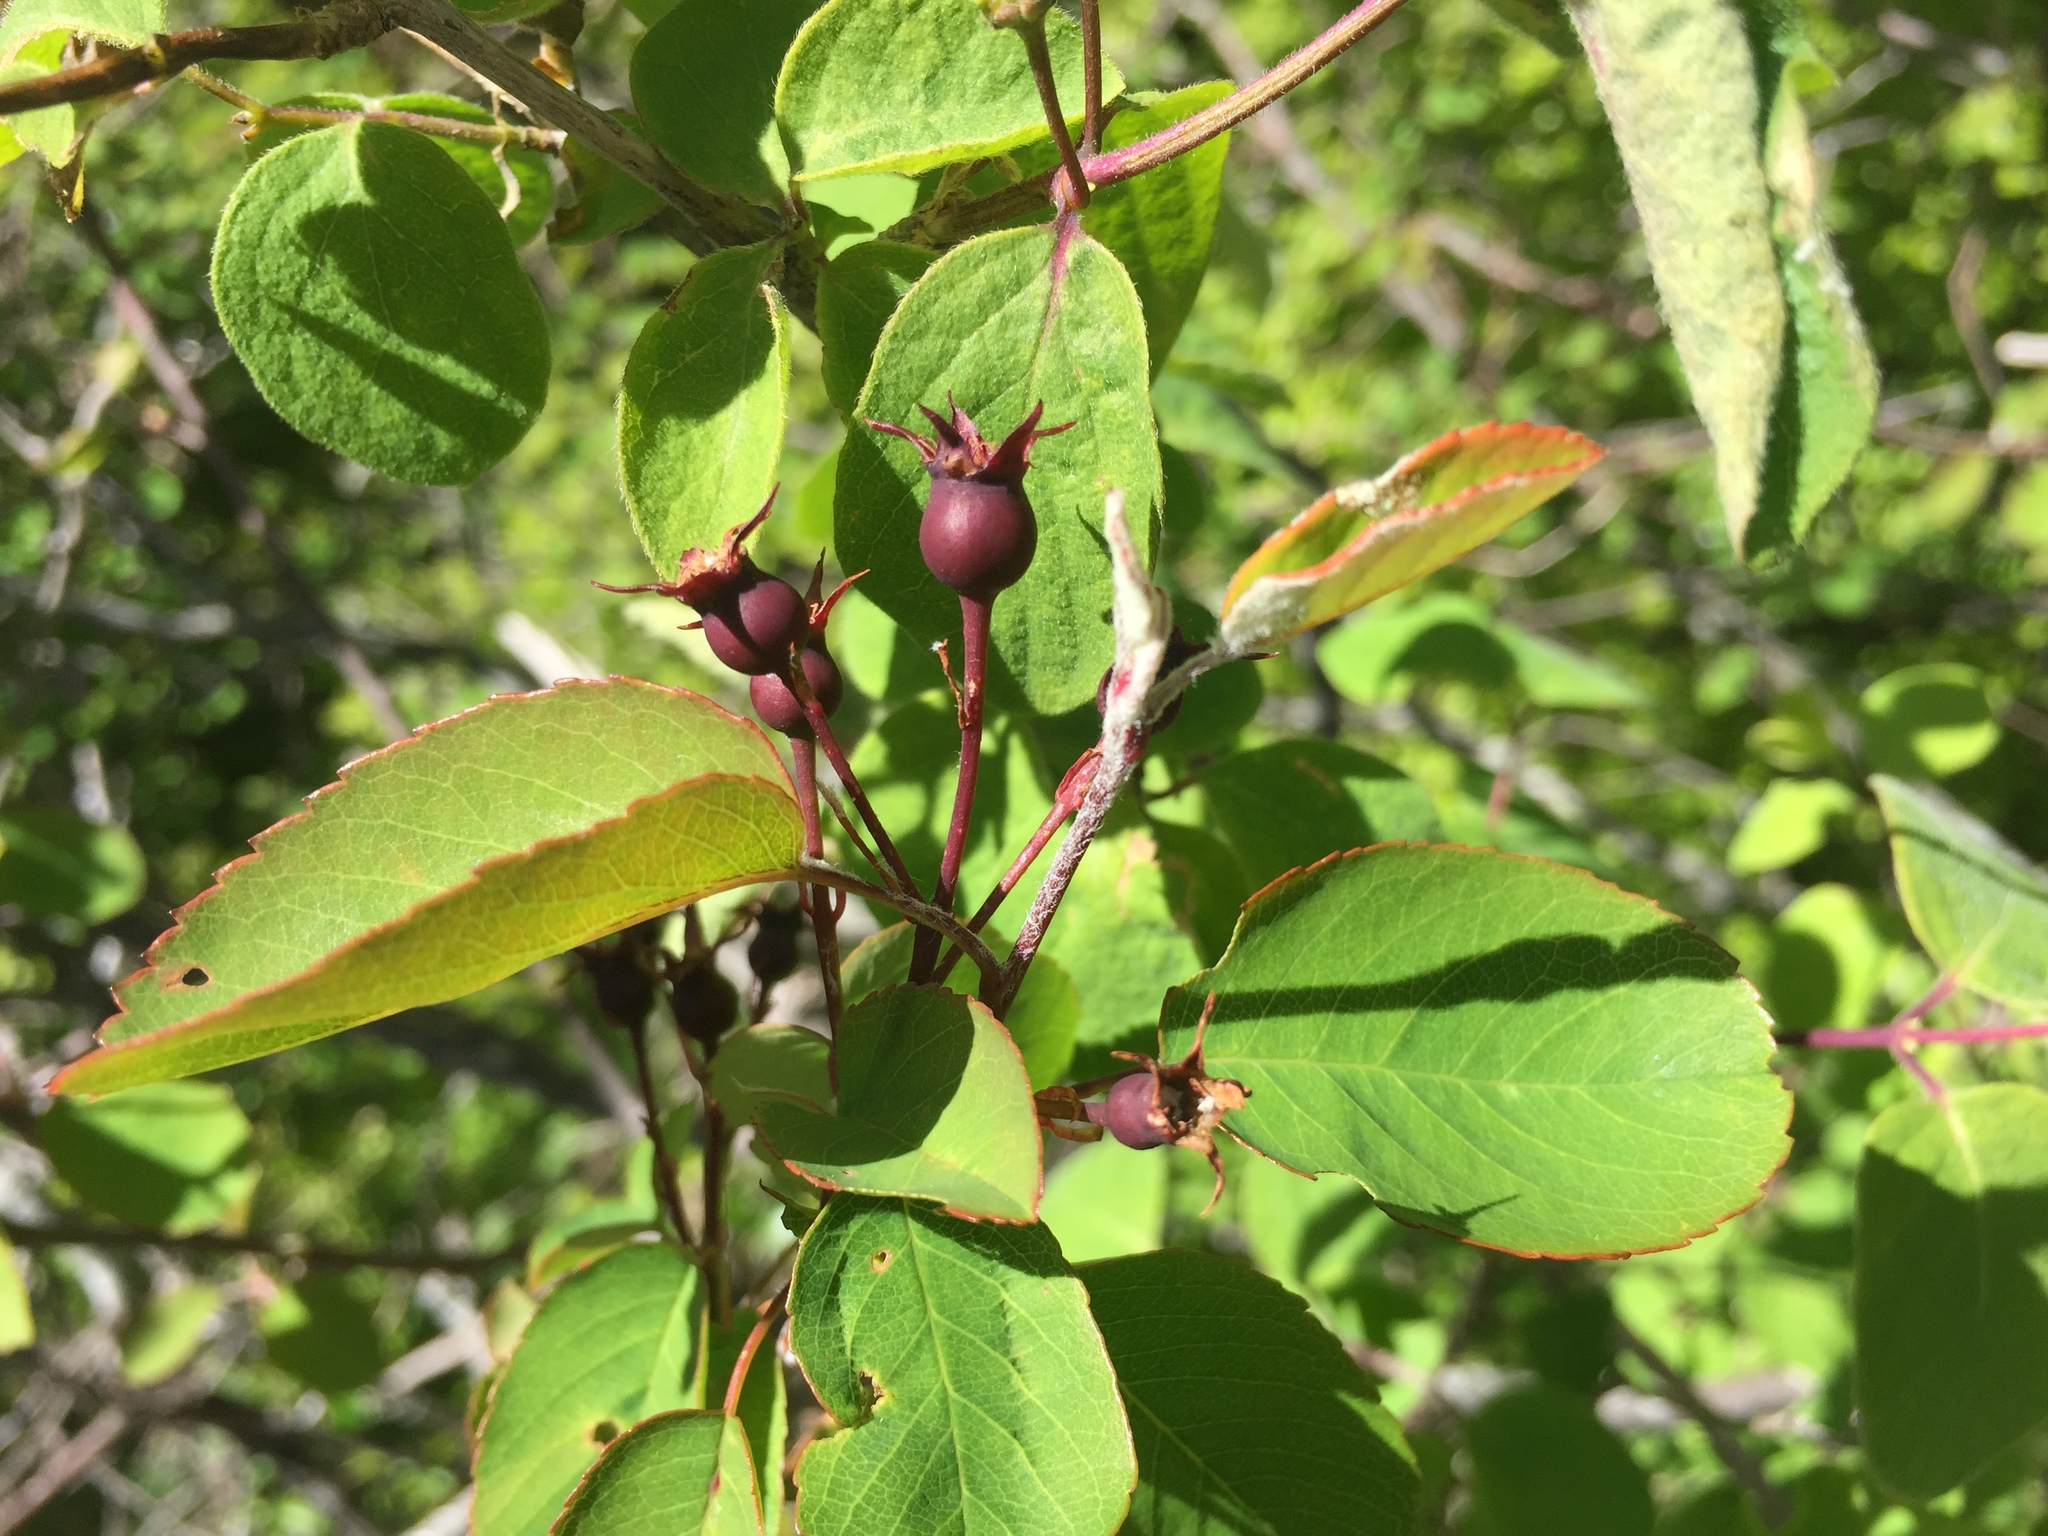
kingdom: Plantae
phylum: Tracheophyta
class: Magnoliopsida
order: Rosales
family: Rosaceae
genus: Amelanchier
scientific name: Amelanchier ovalis
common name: Serviceberry
